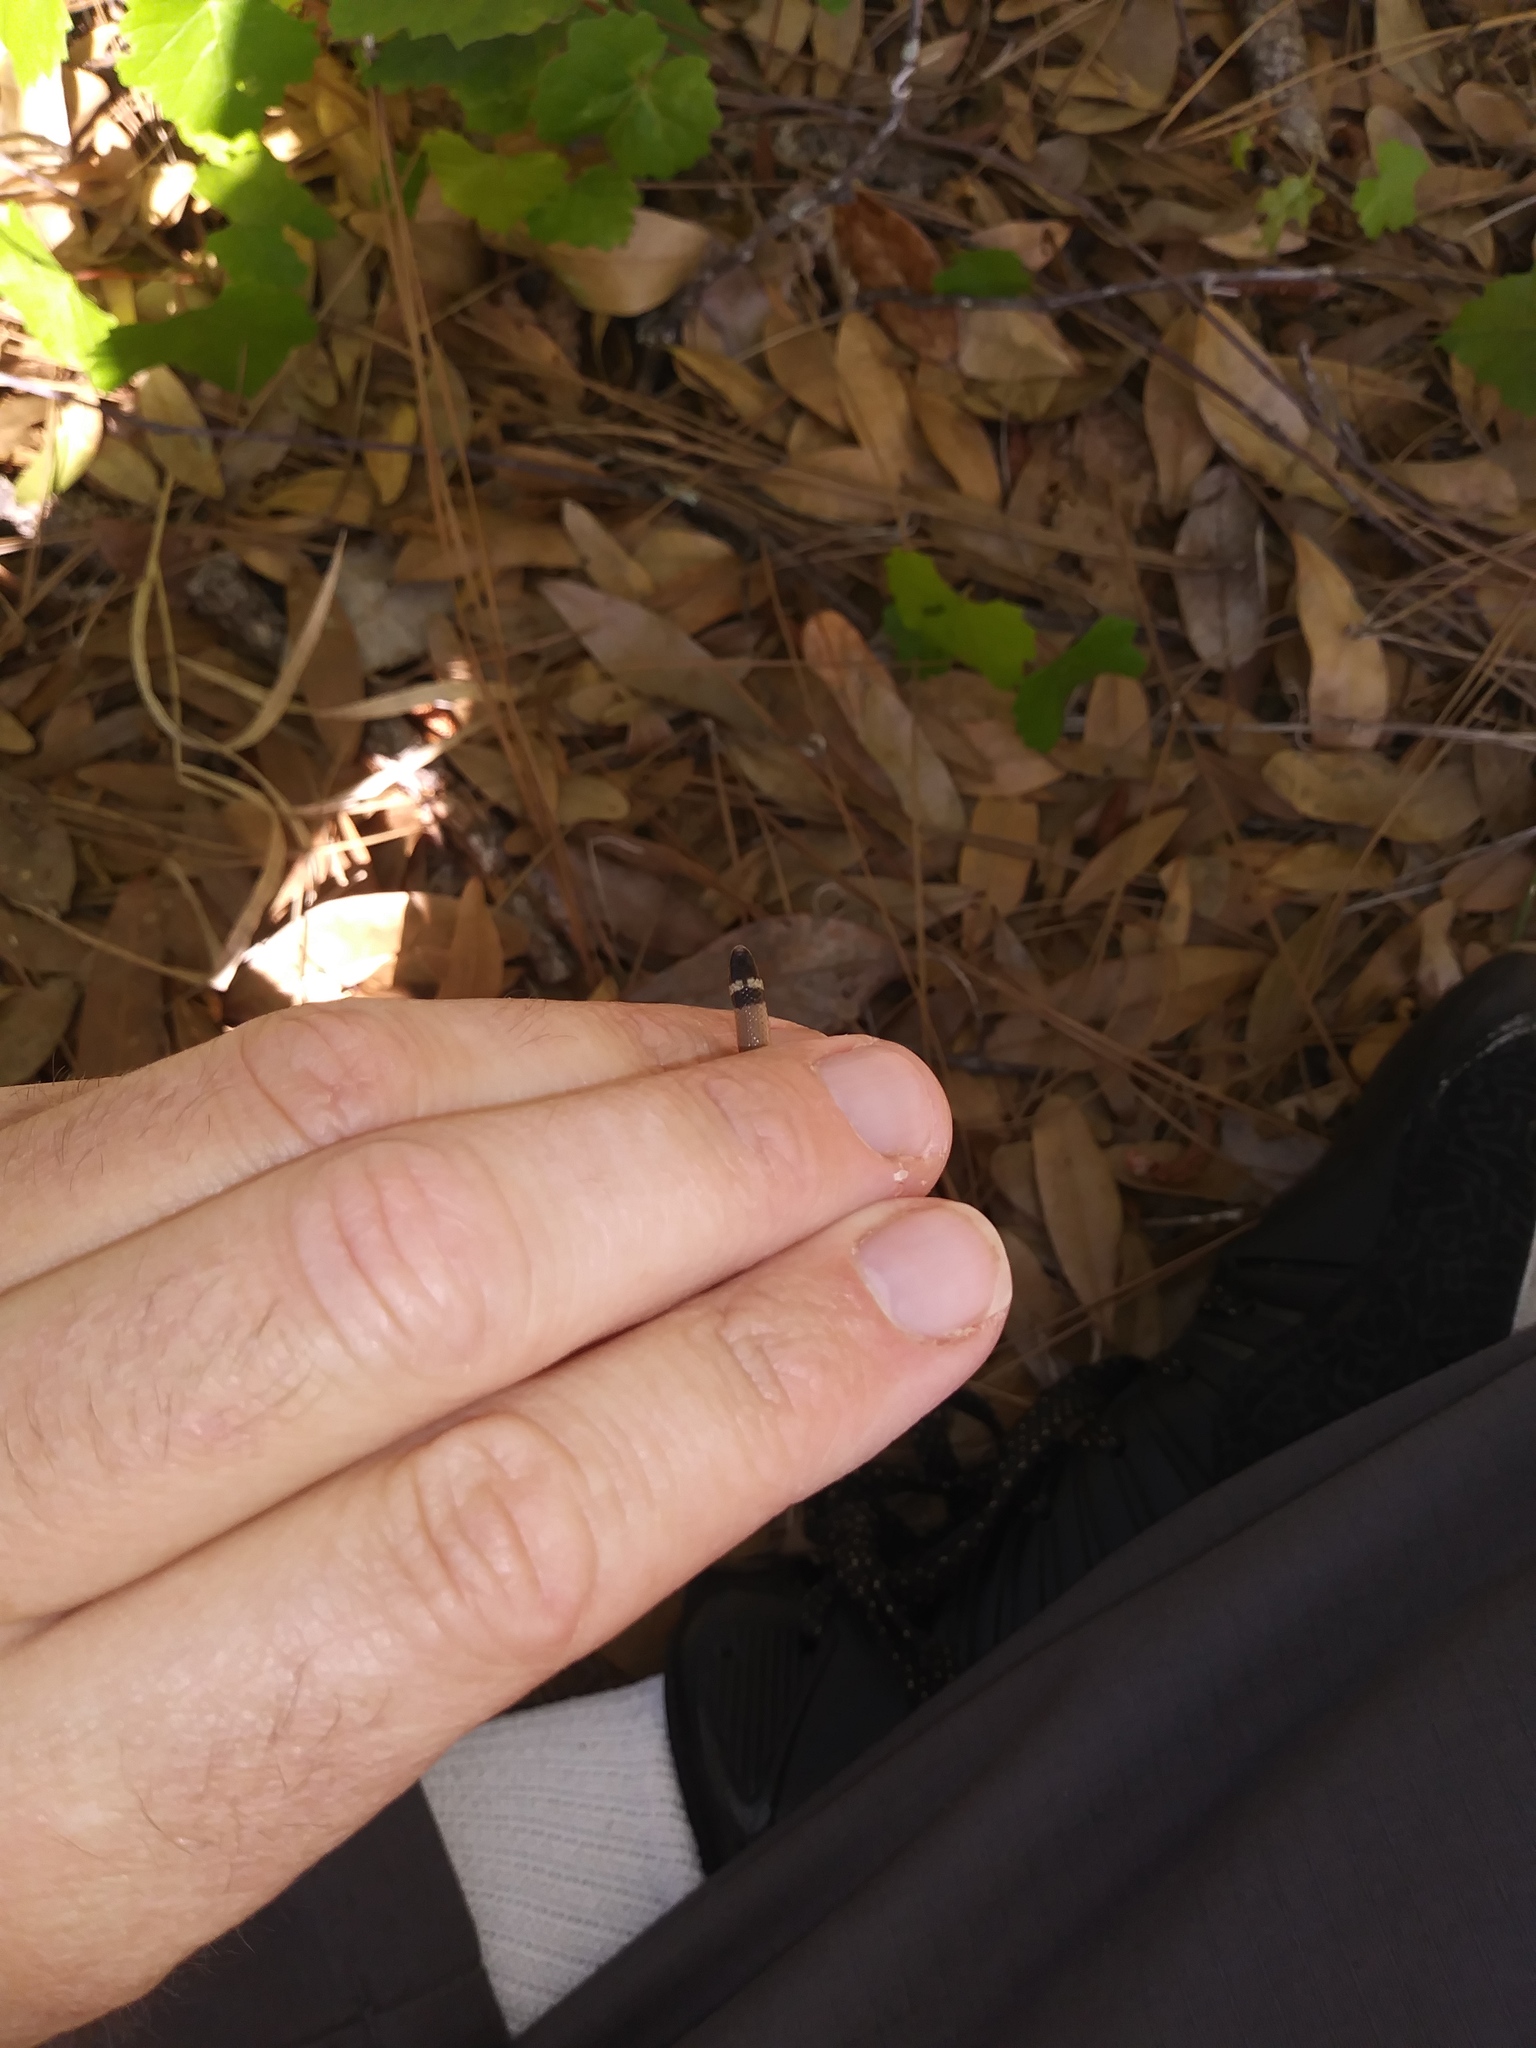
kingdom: Animalia
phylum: Chordata
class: Squamata
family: Colubridae
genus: Tantilla
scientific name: Tantilla relicta
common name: Florida crowned snake
